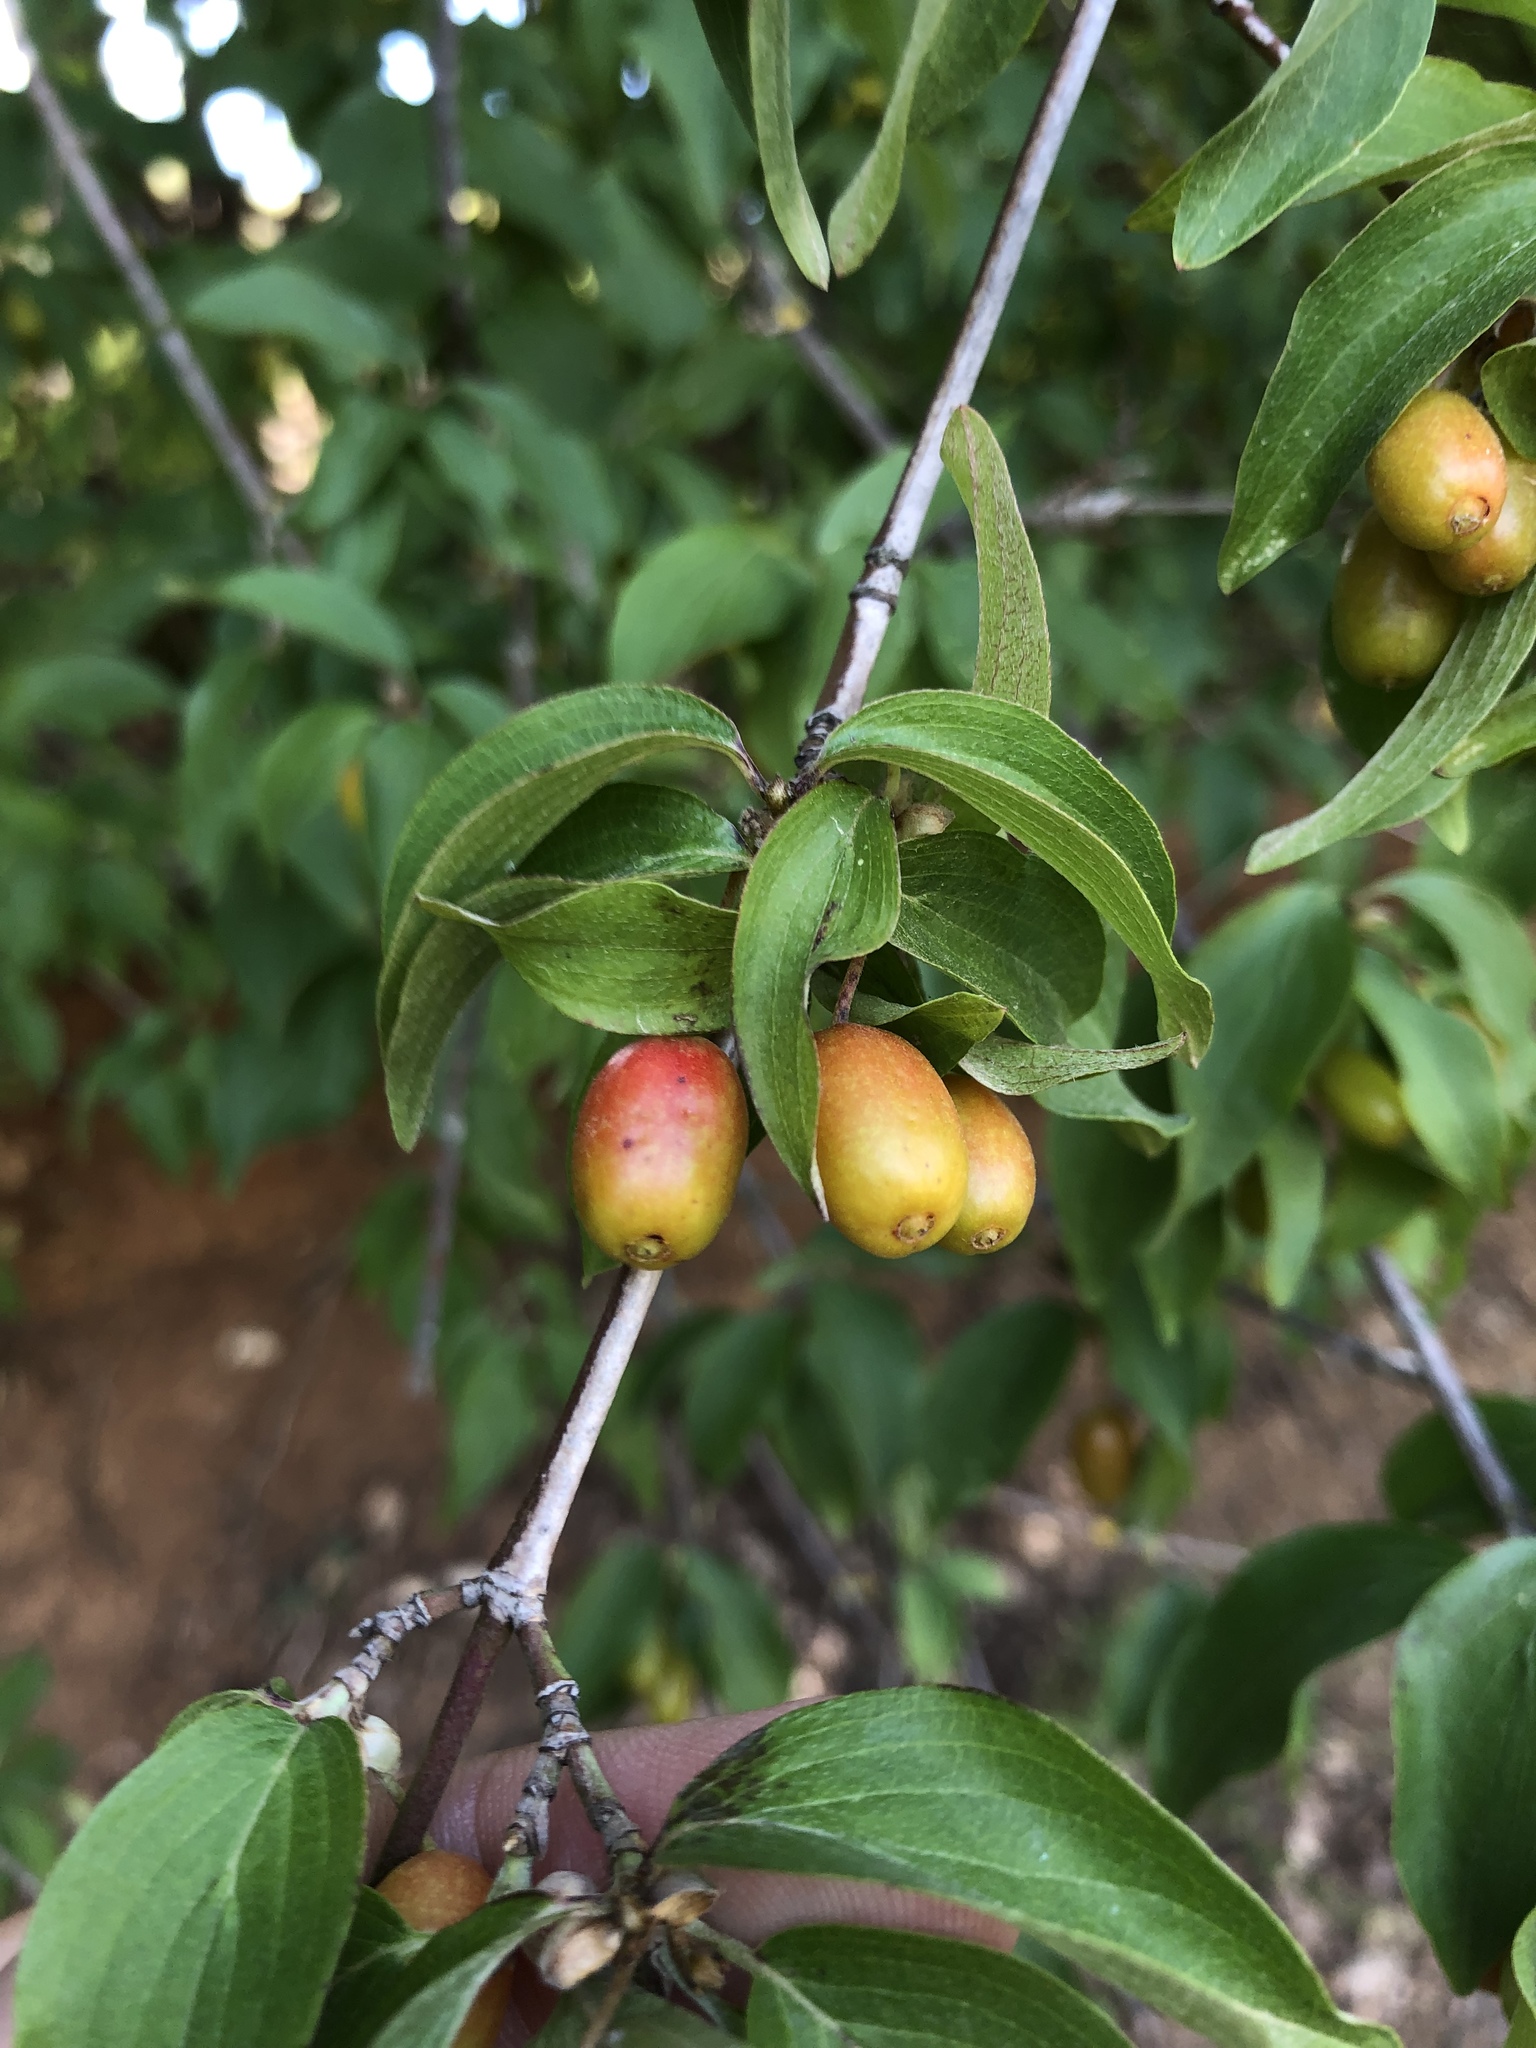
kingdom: Plantae
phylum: Tracheophyta
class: Magnoliopsida
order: Cornales
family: Cornaceae
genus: Cornus
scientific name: Cornus mas
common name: Cornelian-cherry
